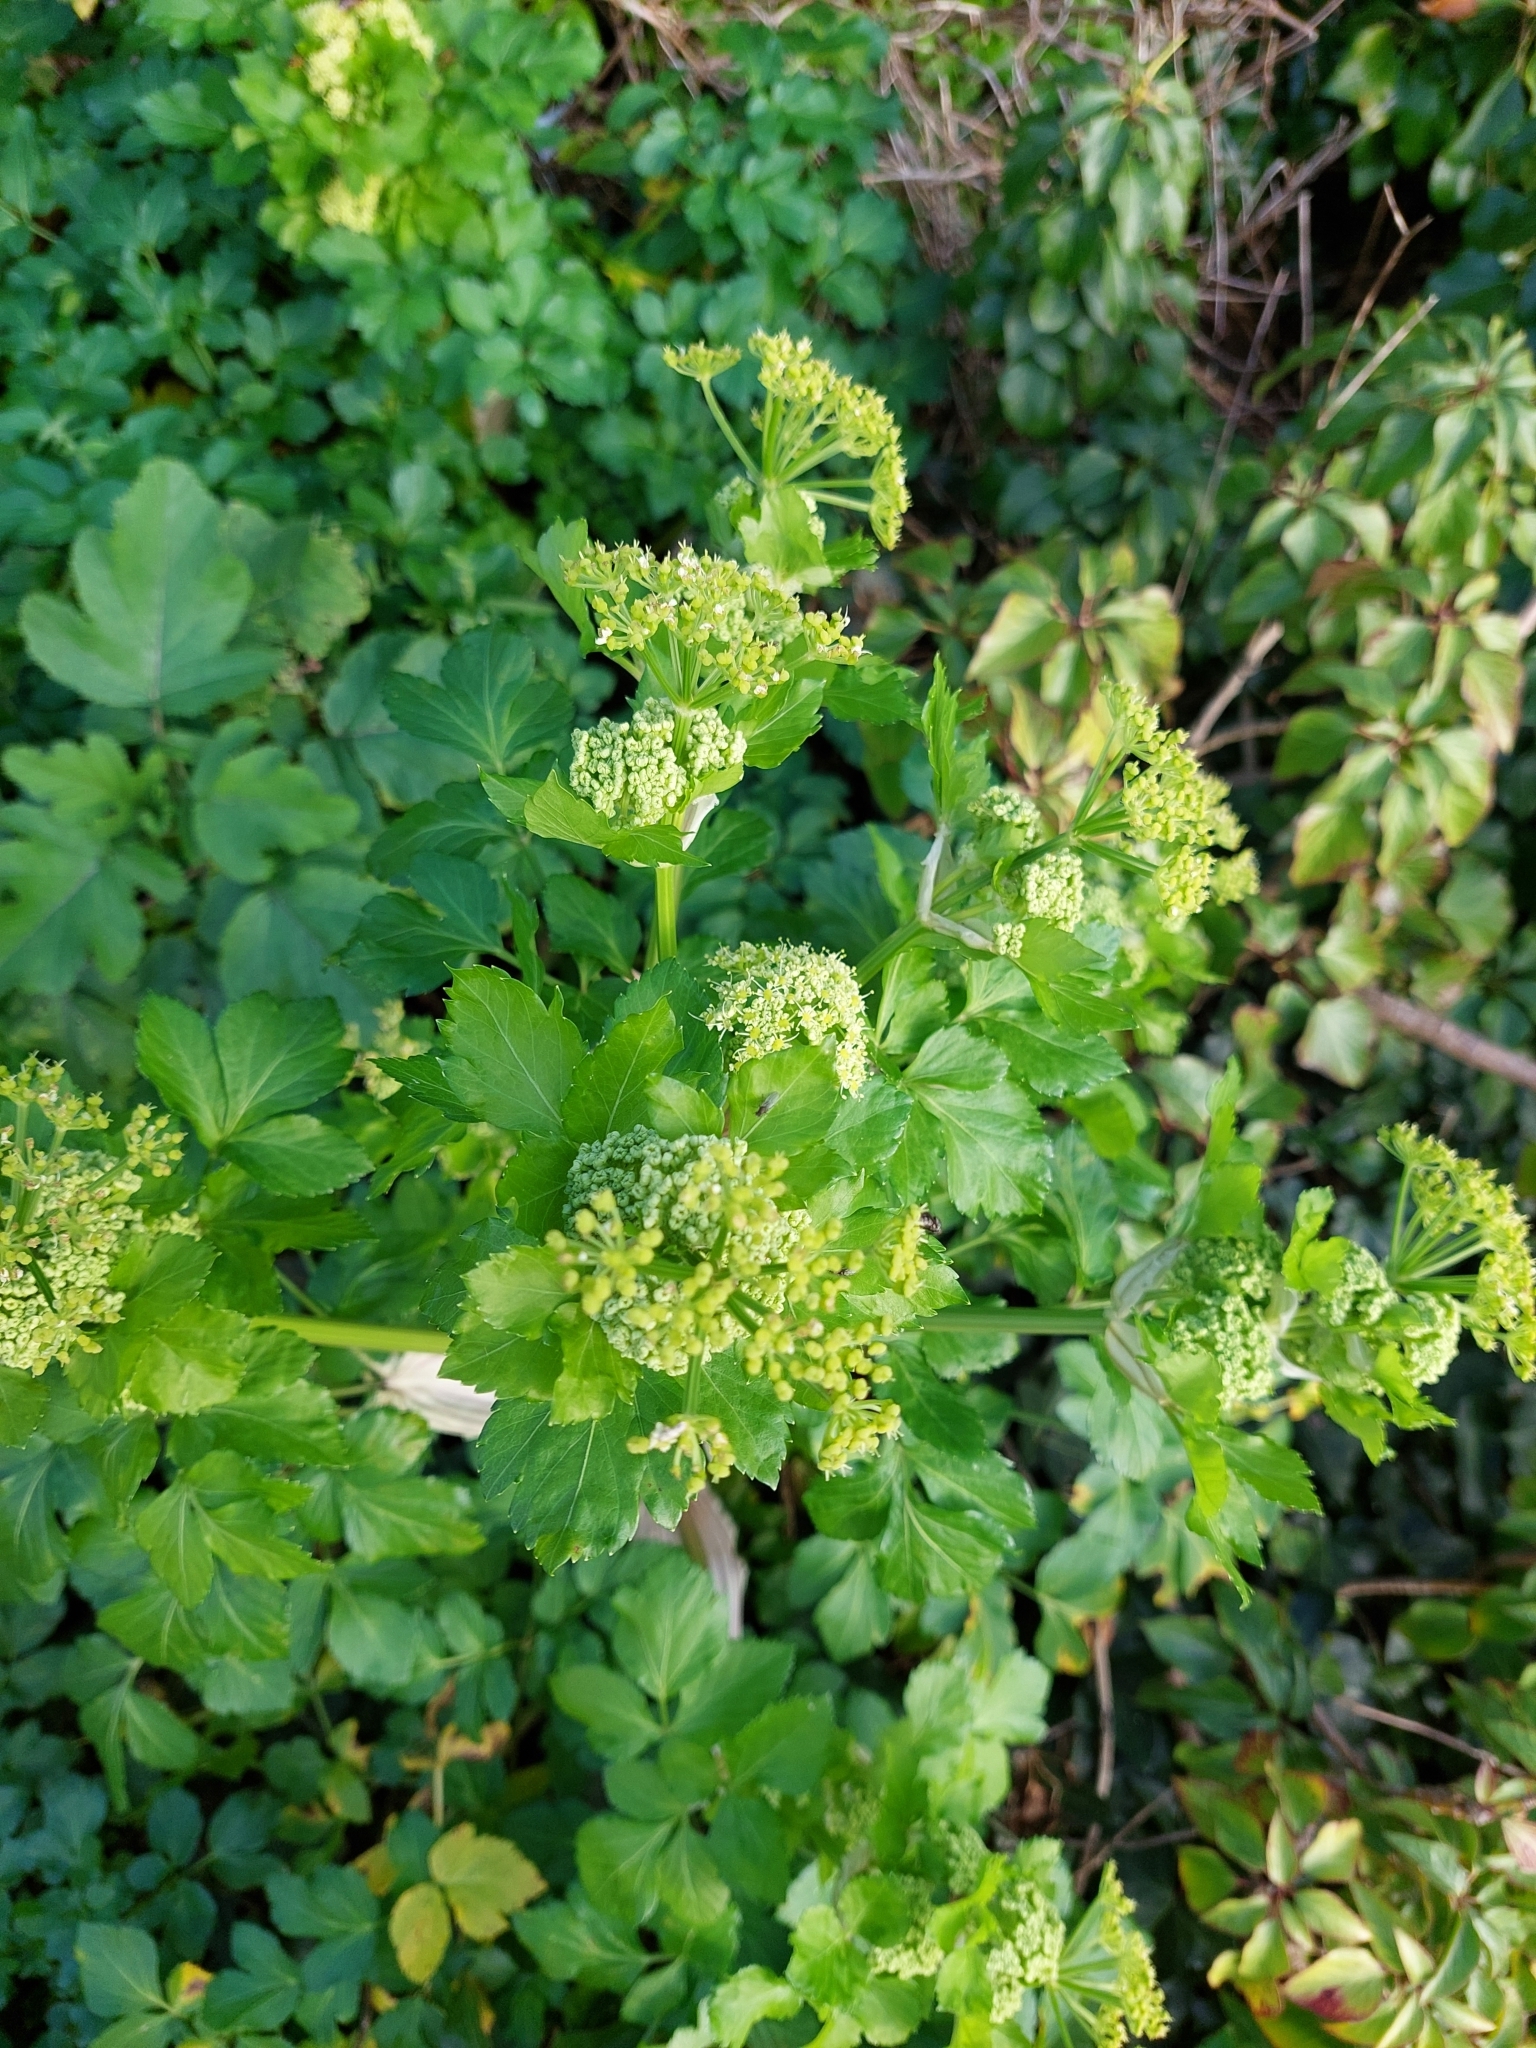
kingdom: Plantae
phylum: Tracheophyta
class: Magnoliopsida
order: Apiales
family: Apiaceae
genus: Smyrnium
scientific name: Smyrnium olusatrum
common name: Alexanders
